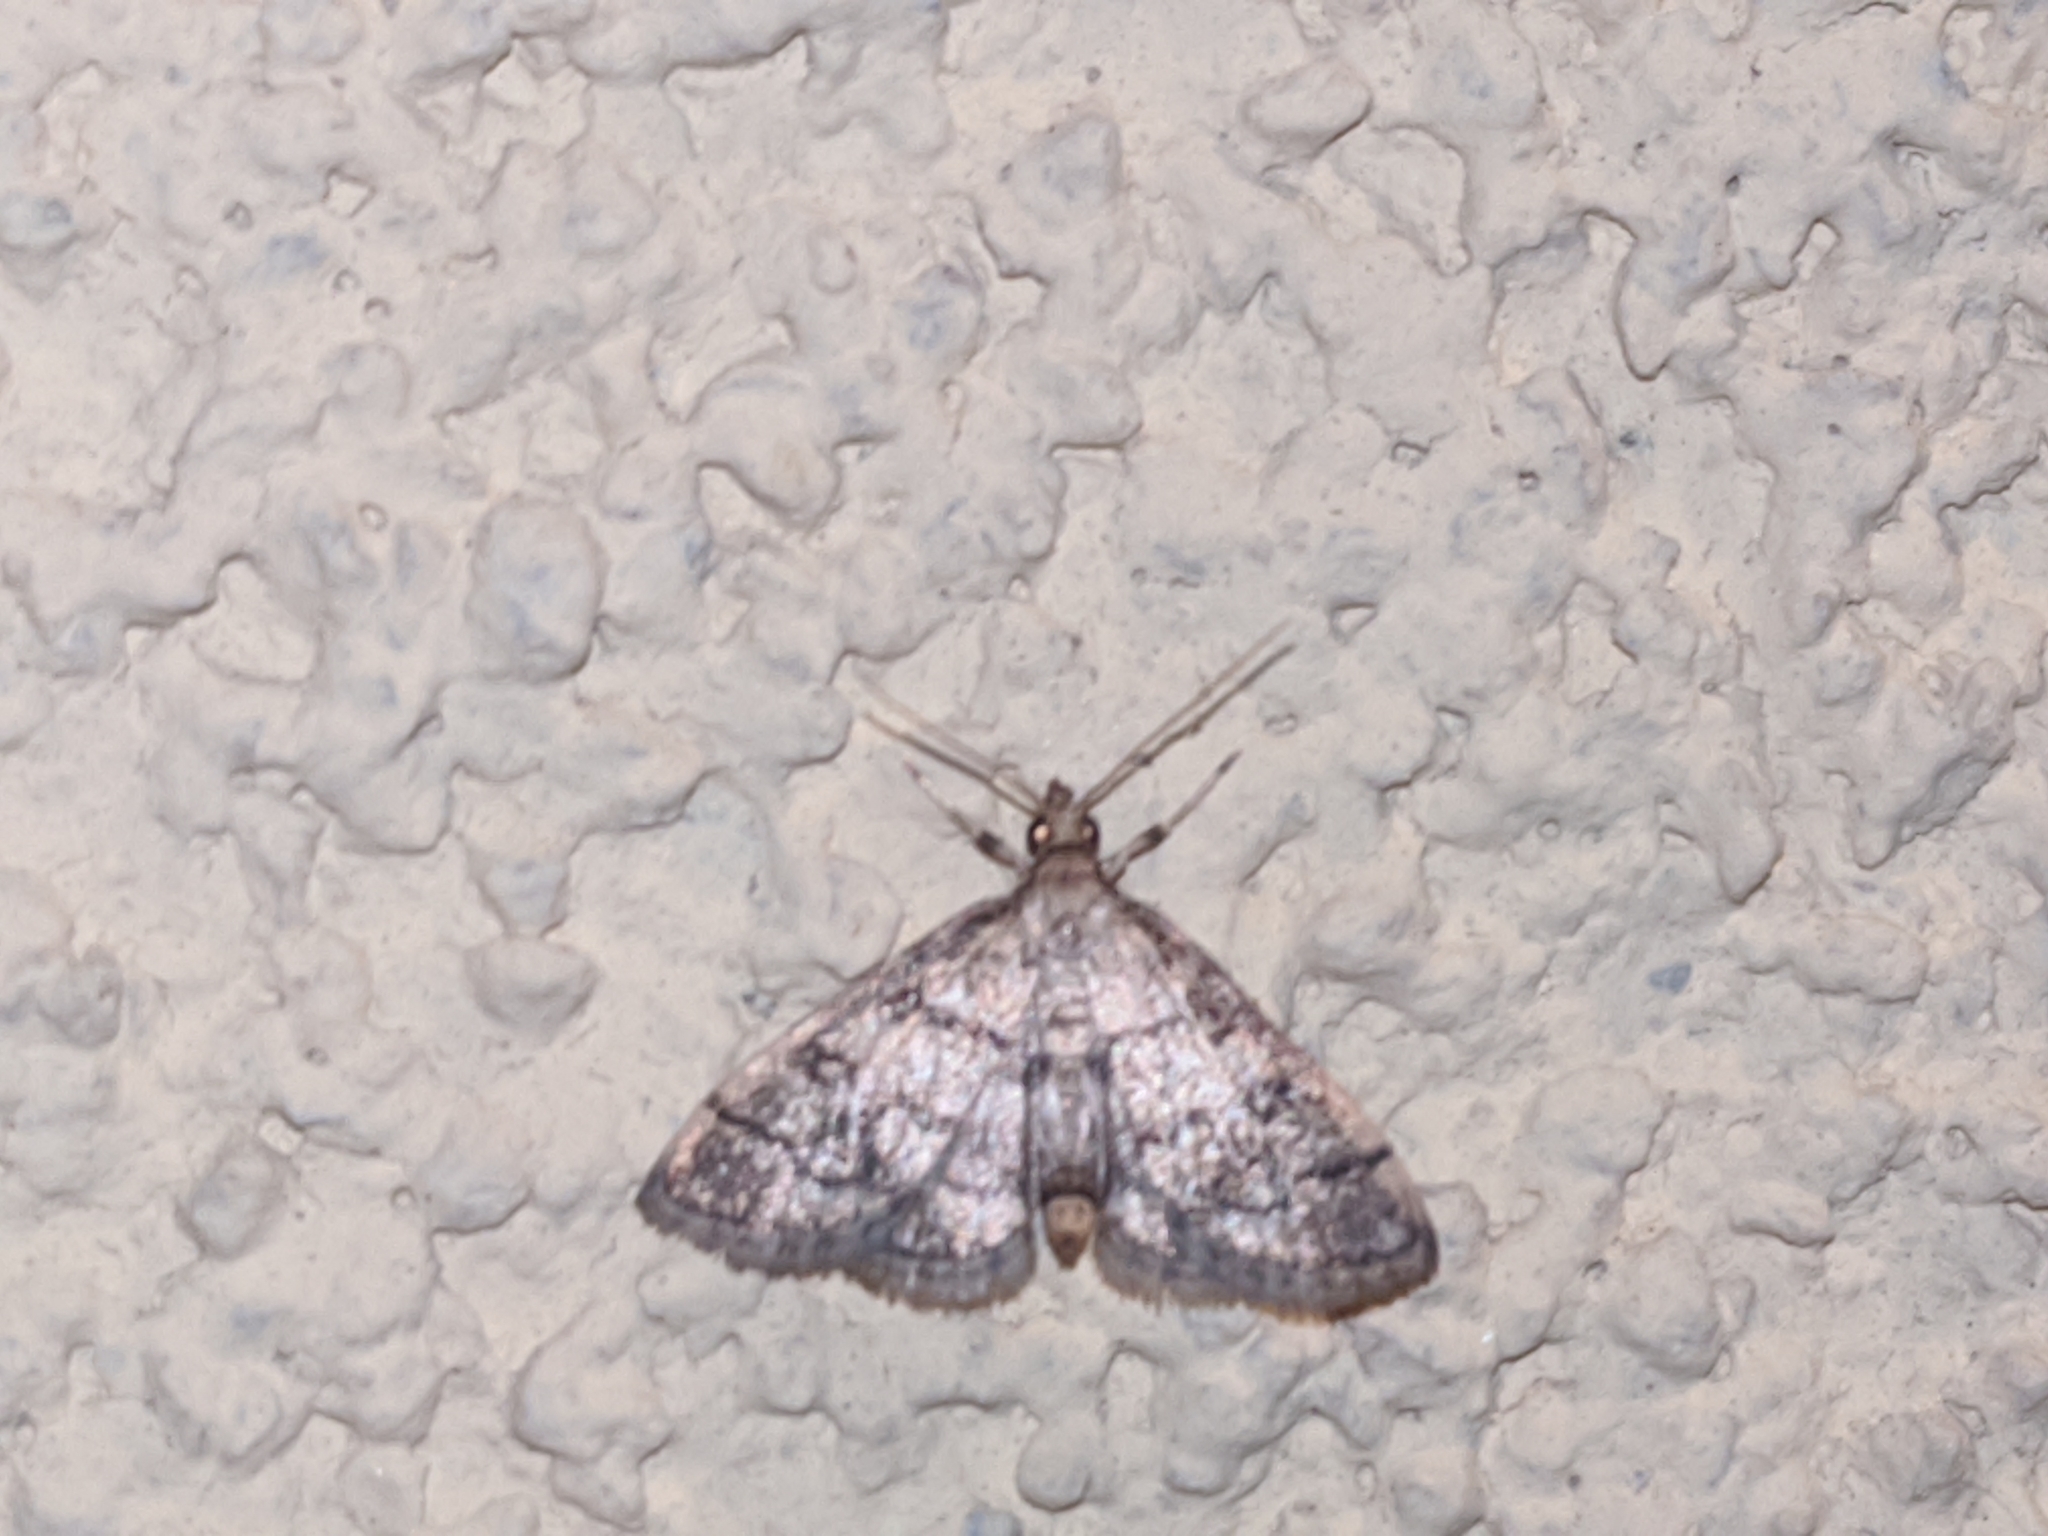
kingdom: Animalia
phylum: Arthropoda
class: Insecta
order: Lepidoptera
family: Crambidae
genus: Metasia
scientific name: Metasia ophialis
